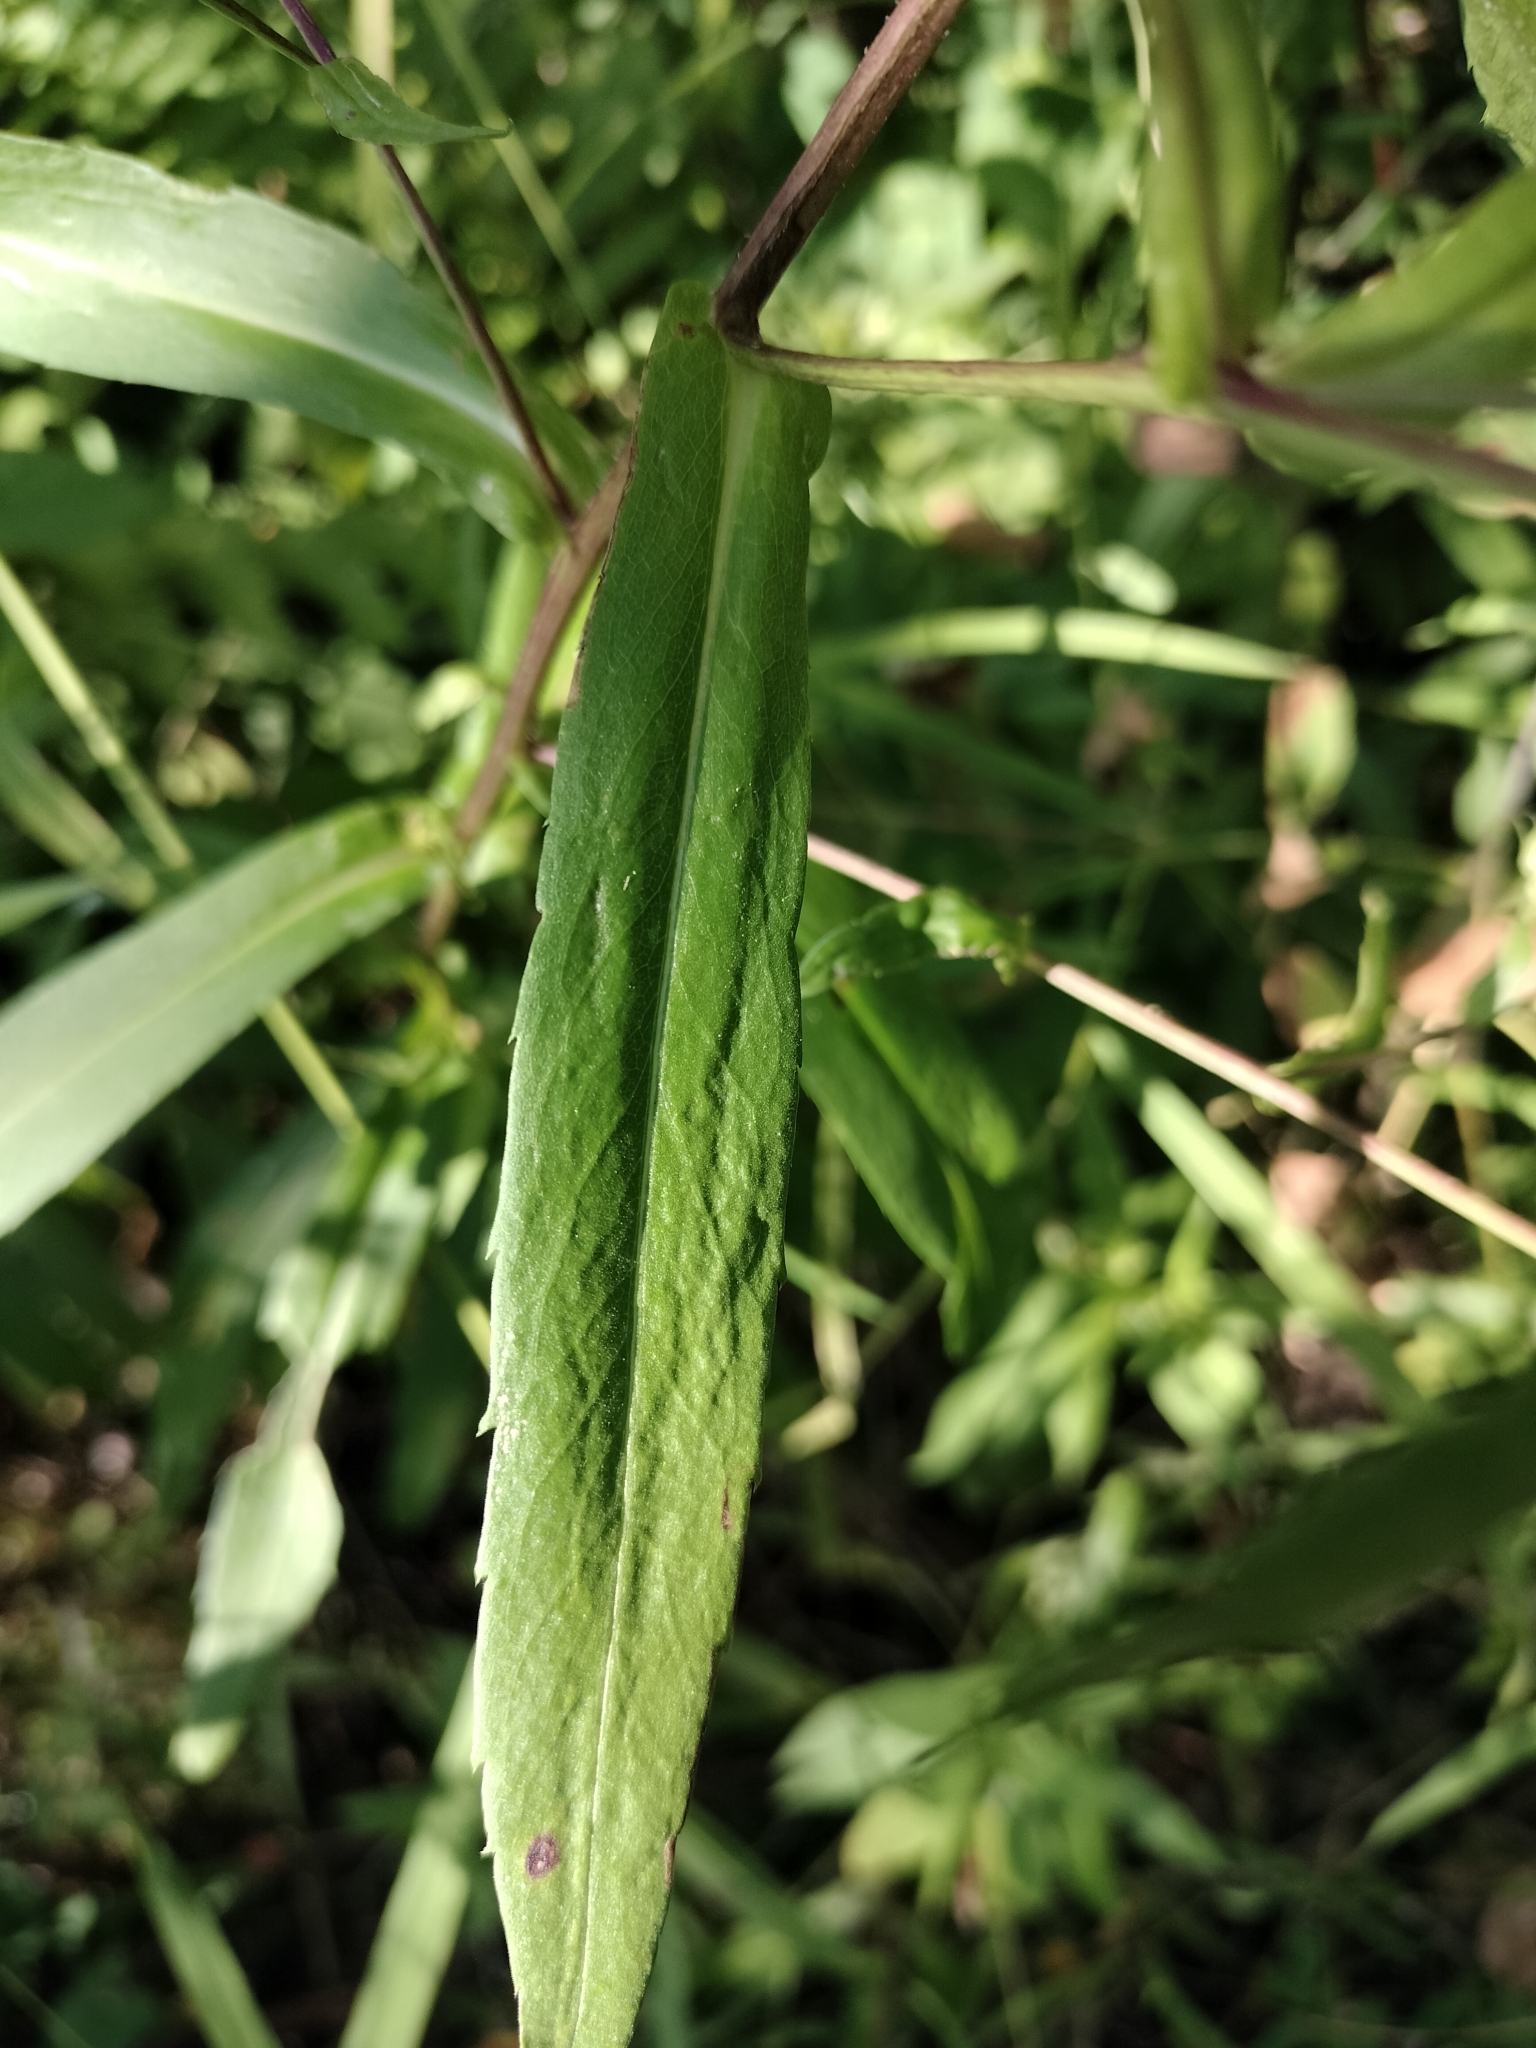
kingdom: Plantae
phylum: Tracheophyta
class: Magnoliopsida
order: Asterales
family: Asteraceae
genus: Symphyotrichum
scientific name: Symphyotrichum puniceum
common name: Bog aster
